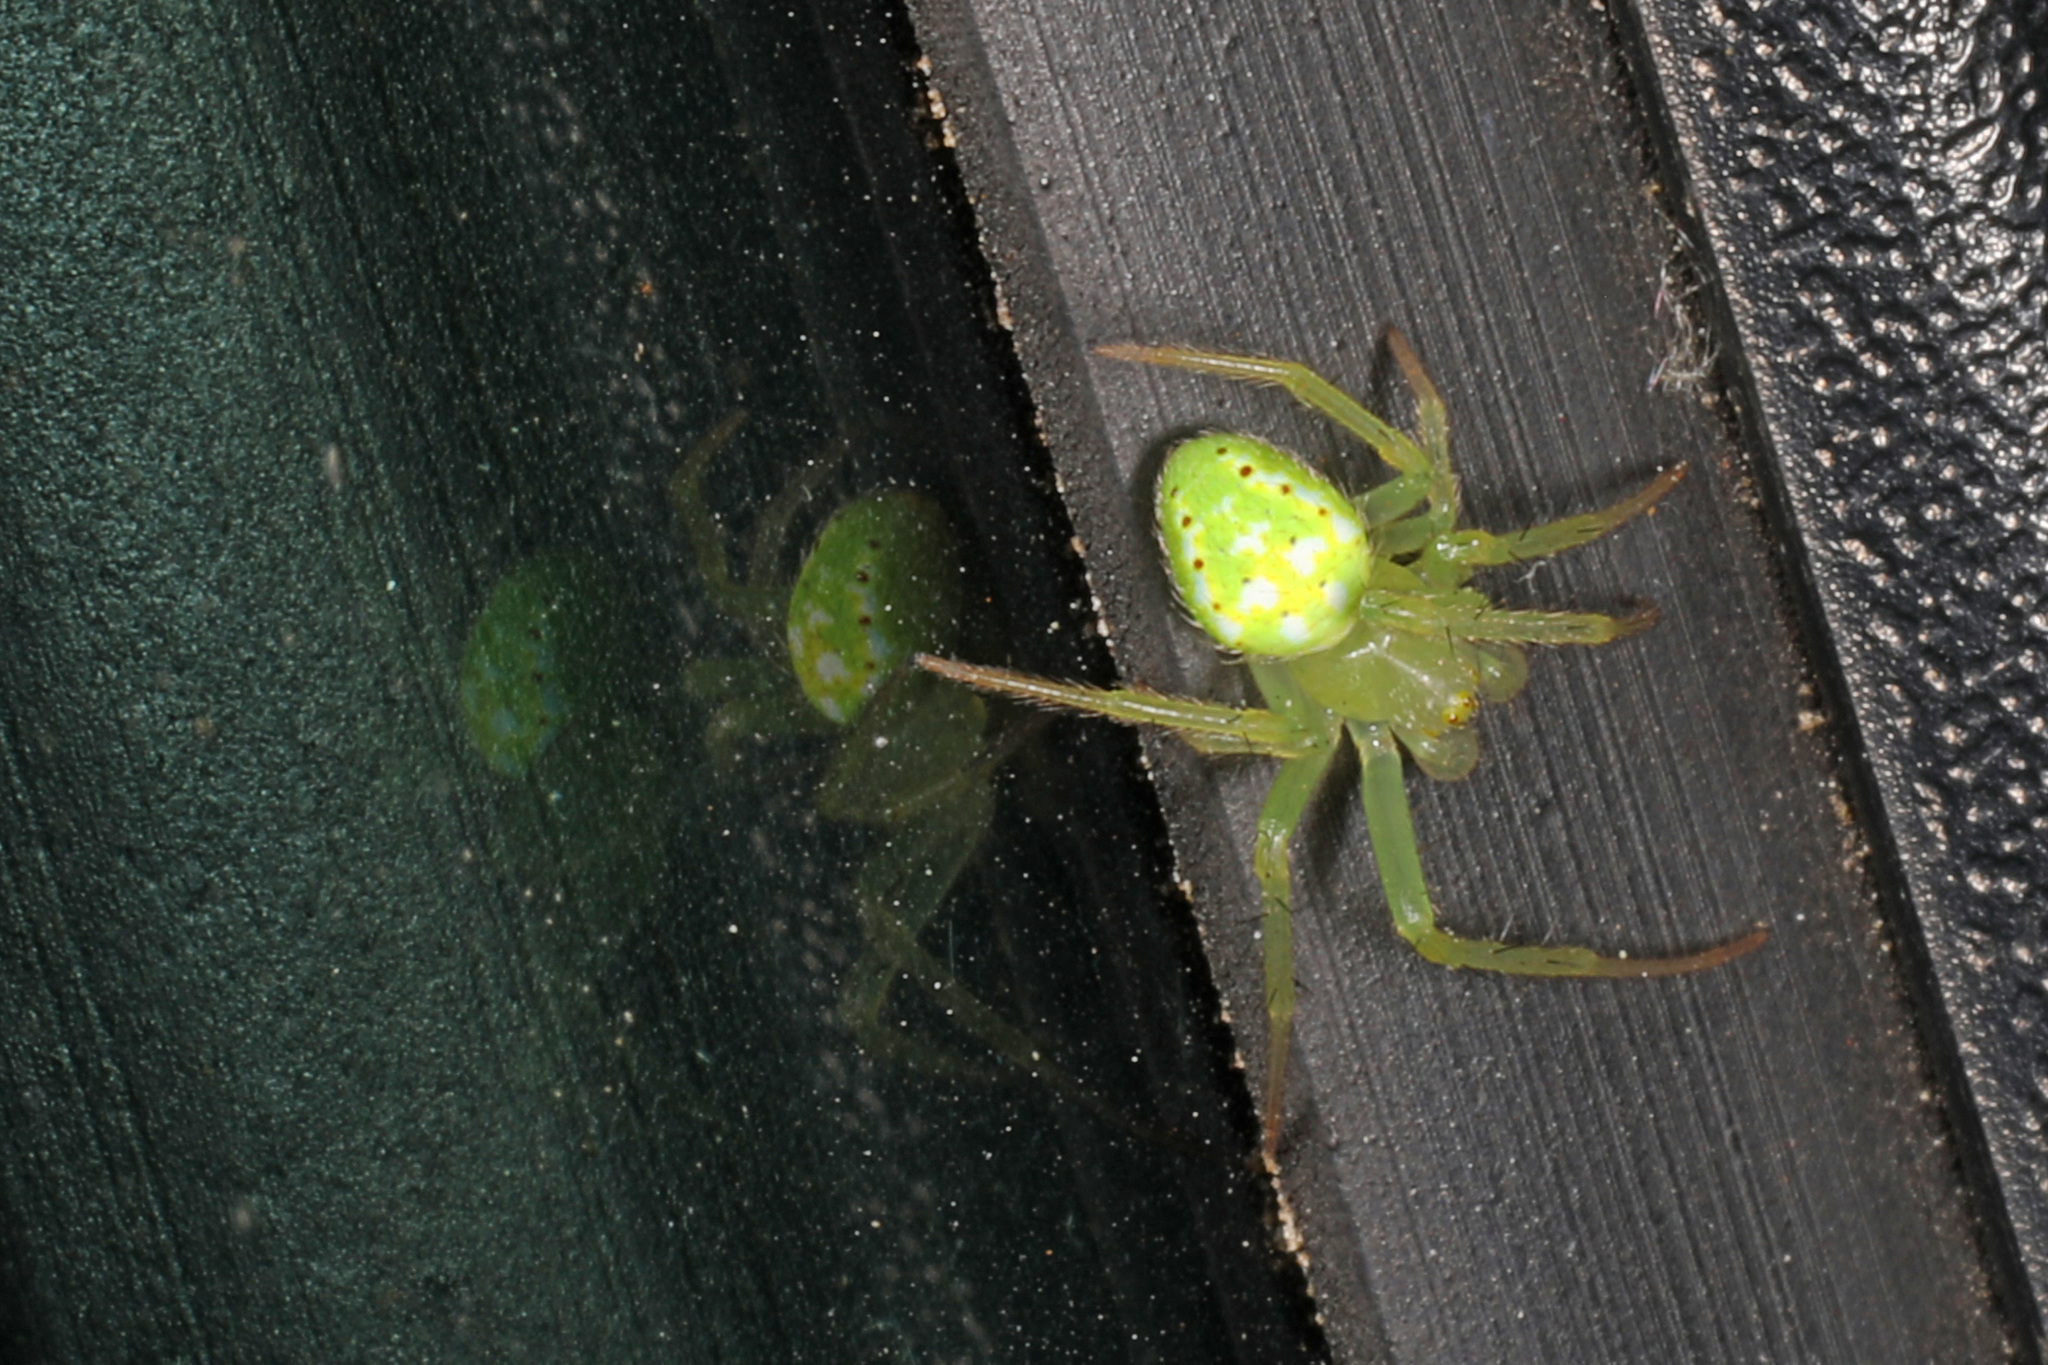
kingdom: Animalia
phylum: Arthropoda
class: Arachnida
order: Araneae
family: Araneidae
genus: Araneus
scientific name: Araneus cingulatus
